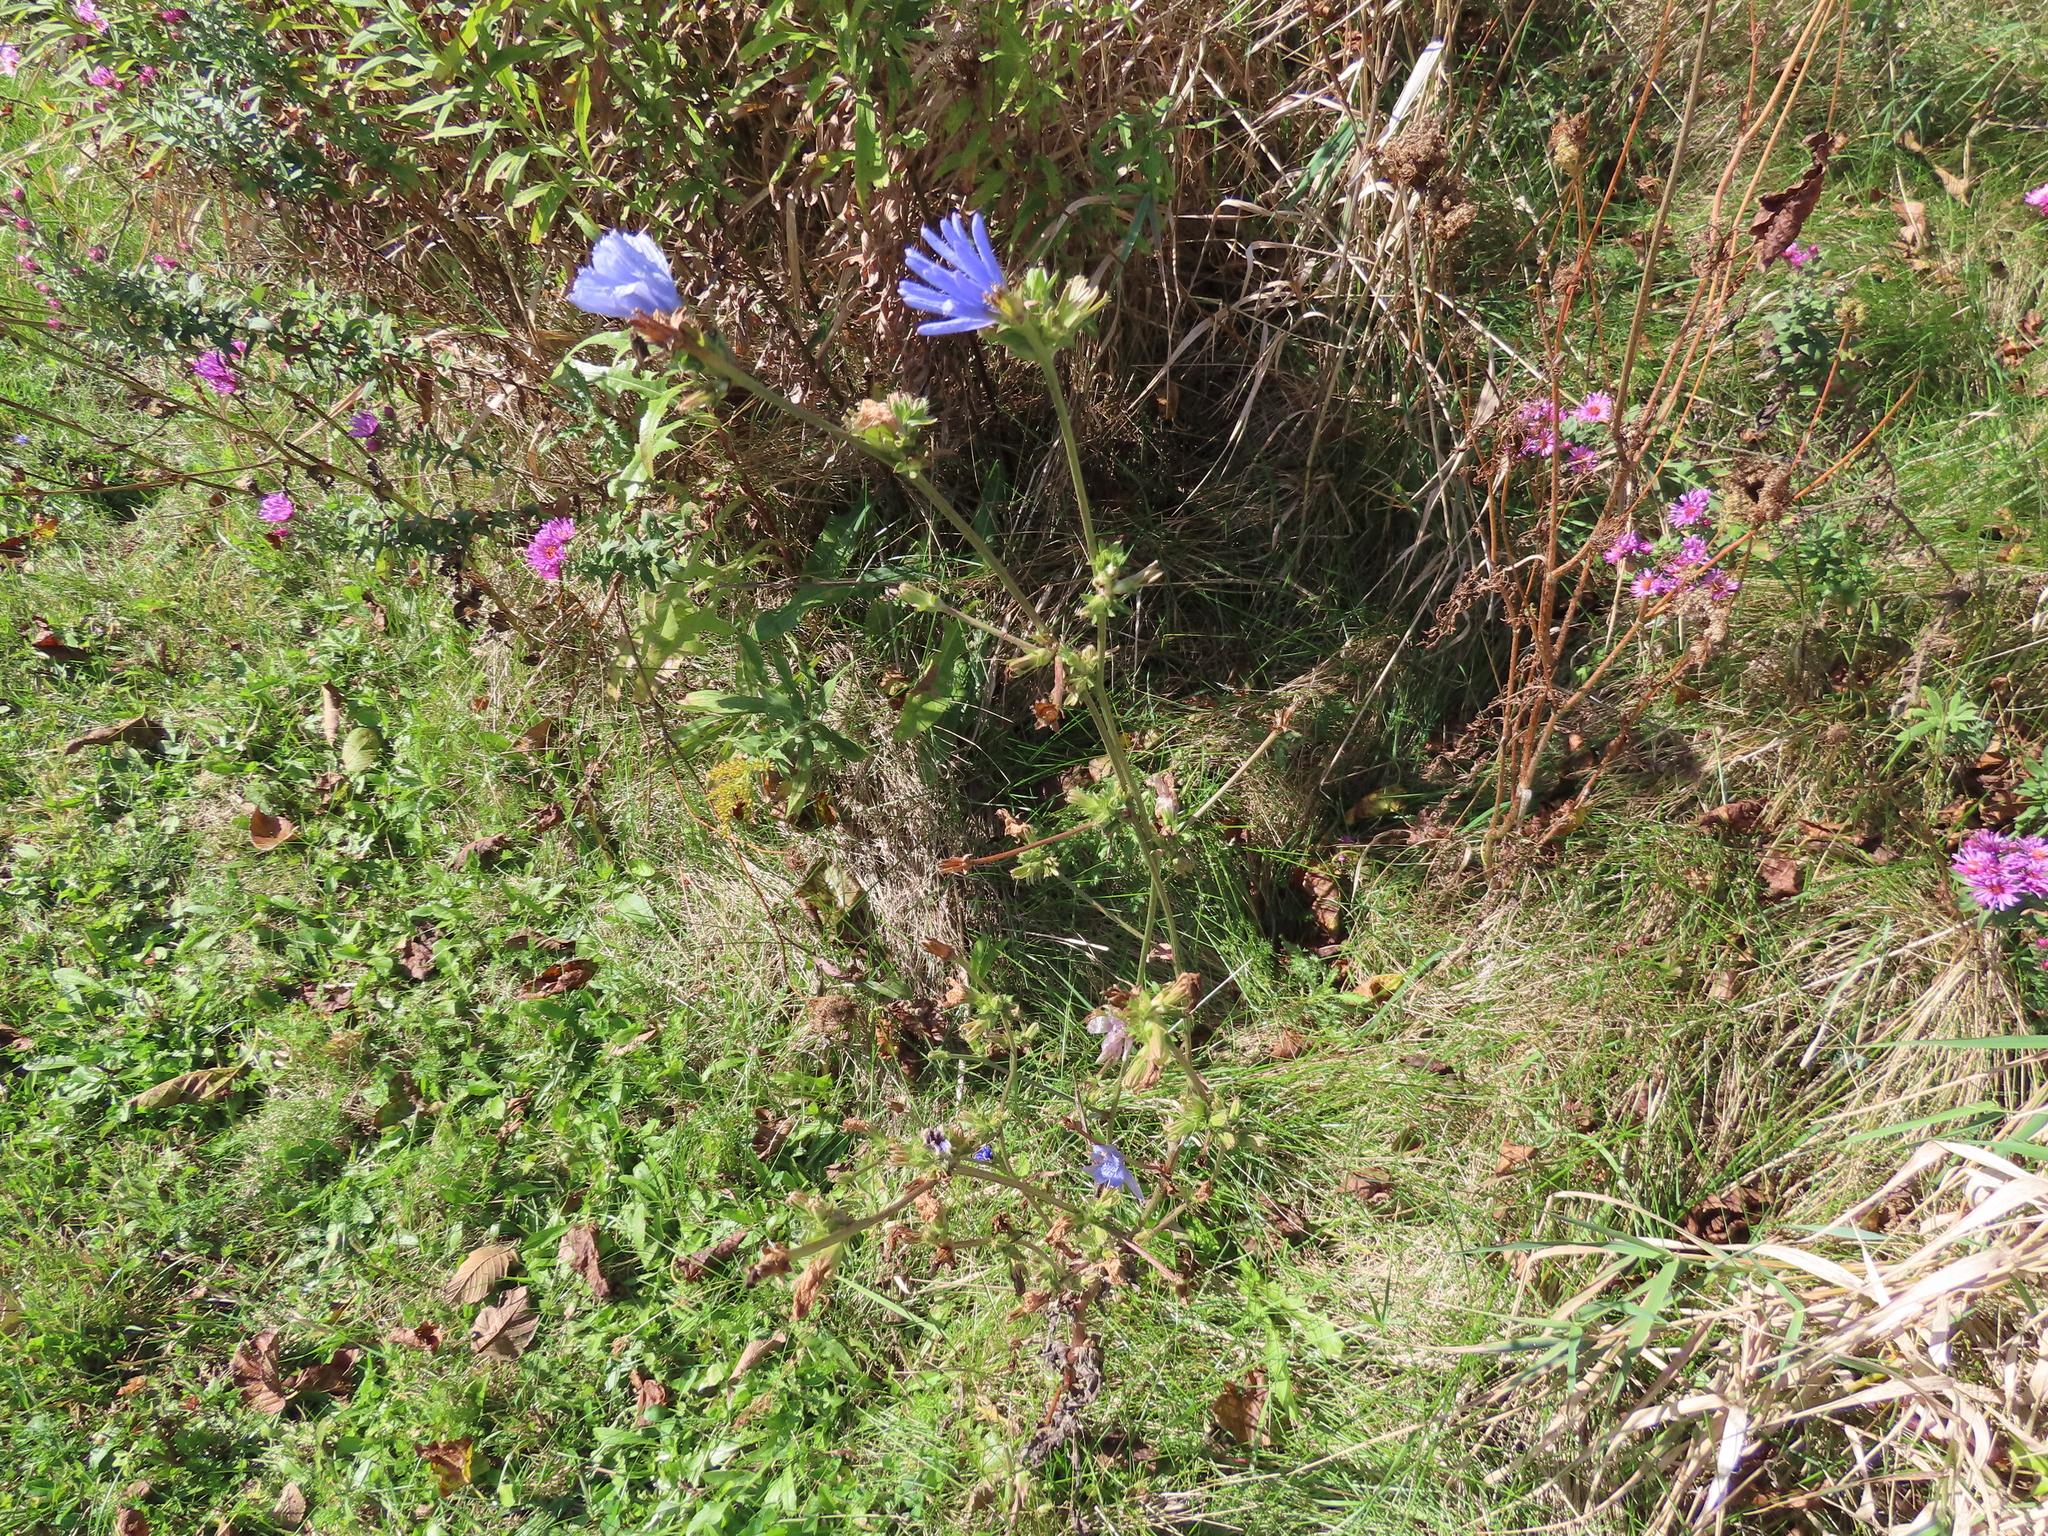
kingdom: Plantae
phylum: Tracheophyta
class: Magnoliopsida
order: Asterales
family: Asteraceae
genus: Cichorium
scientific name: Cichorium intybus
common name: Chicory
